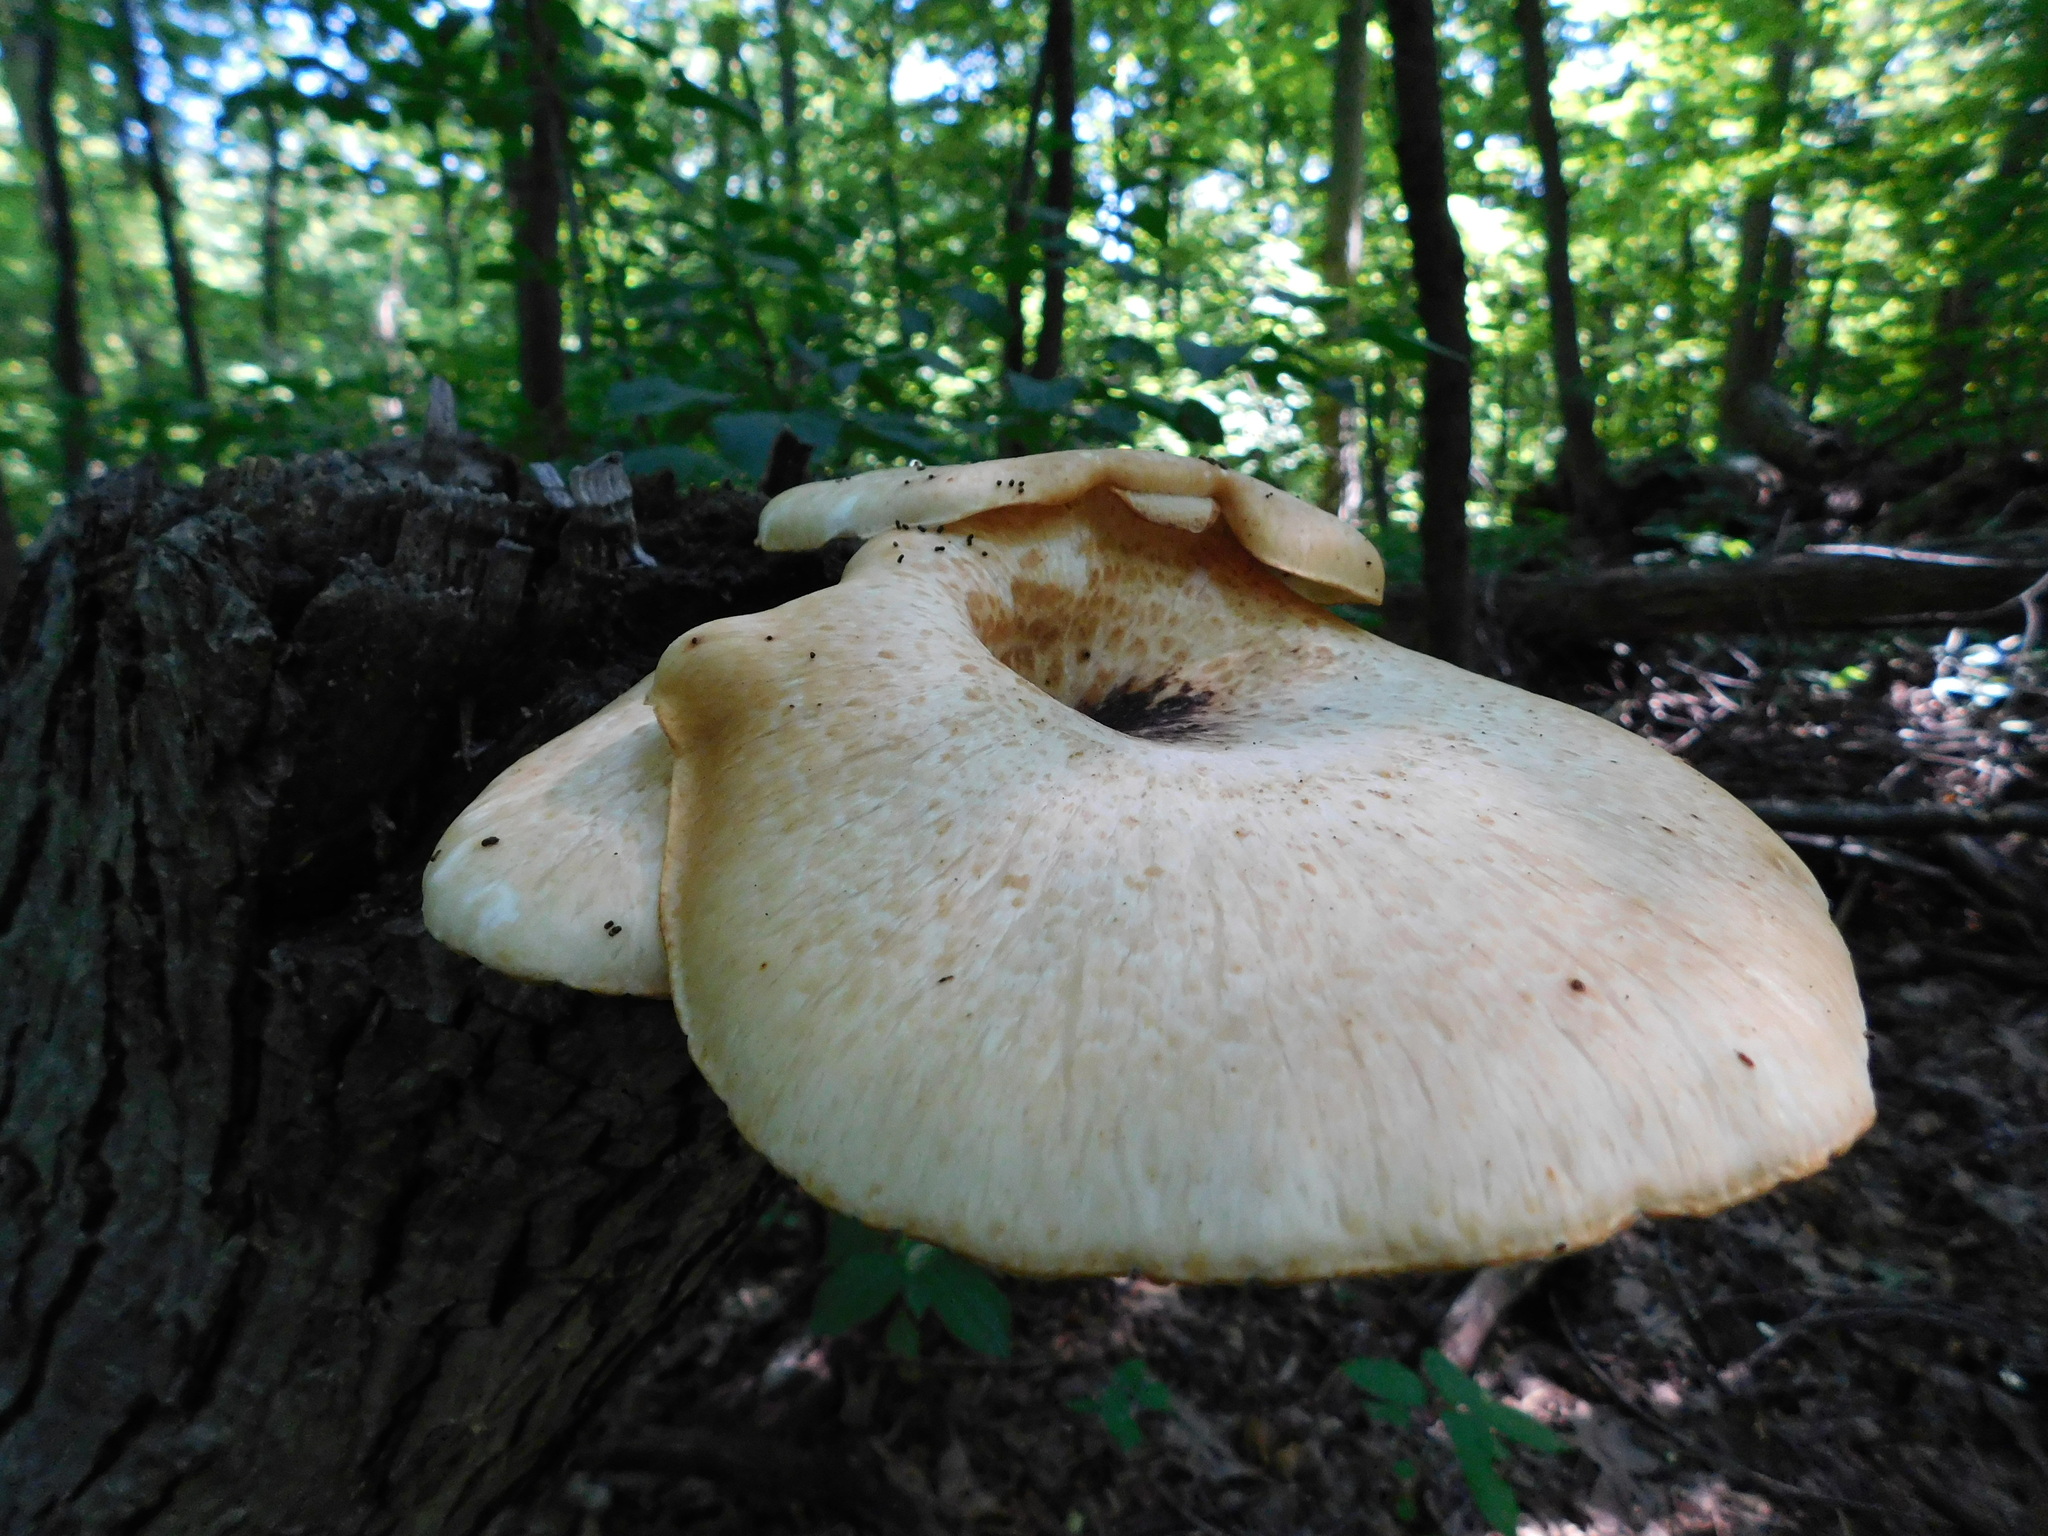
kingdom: Fungi
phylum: Basidiomycota
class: Agaricomycetes
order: Polyporales
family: Polyporaceae
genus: Cerioporus
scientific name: Cerioporus squamosus
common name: Dryad's saddle
